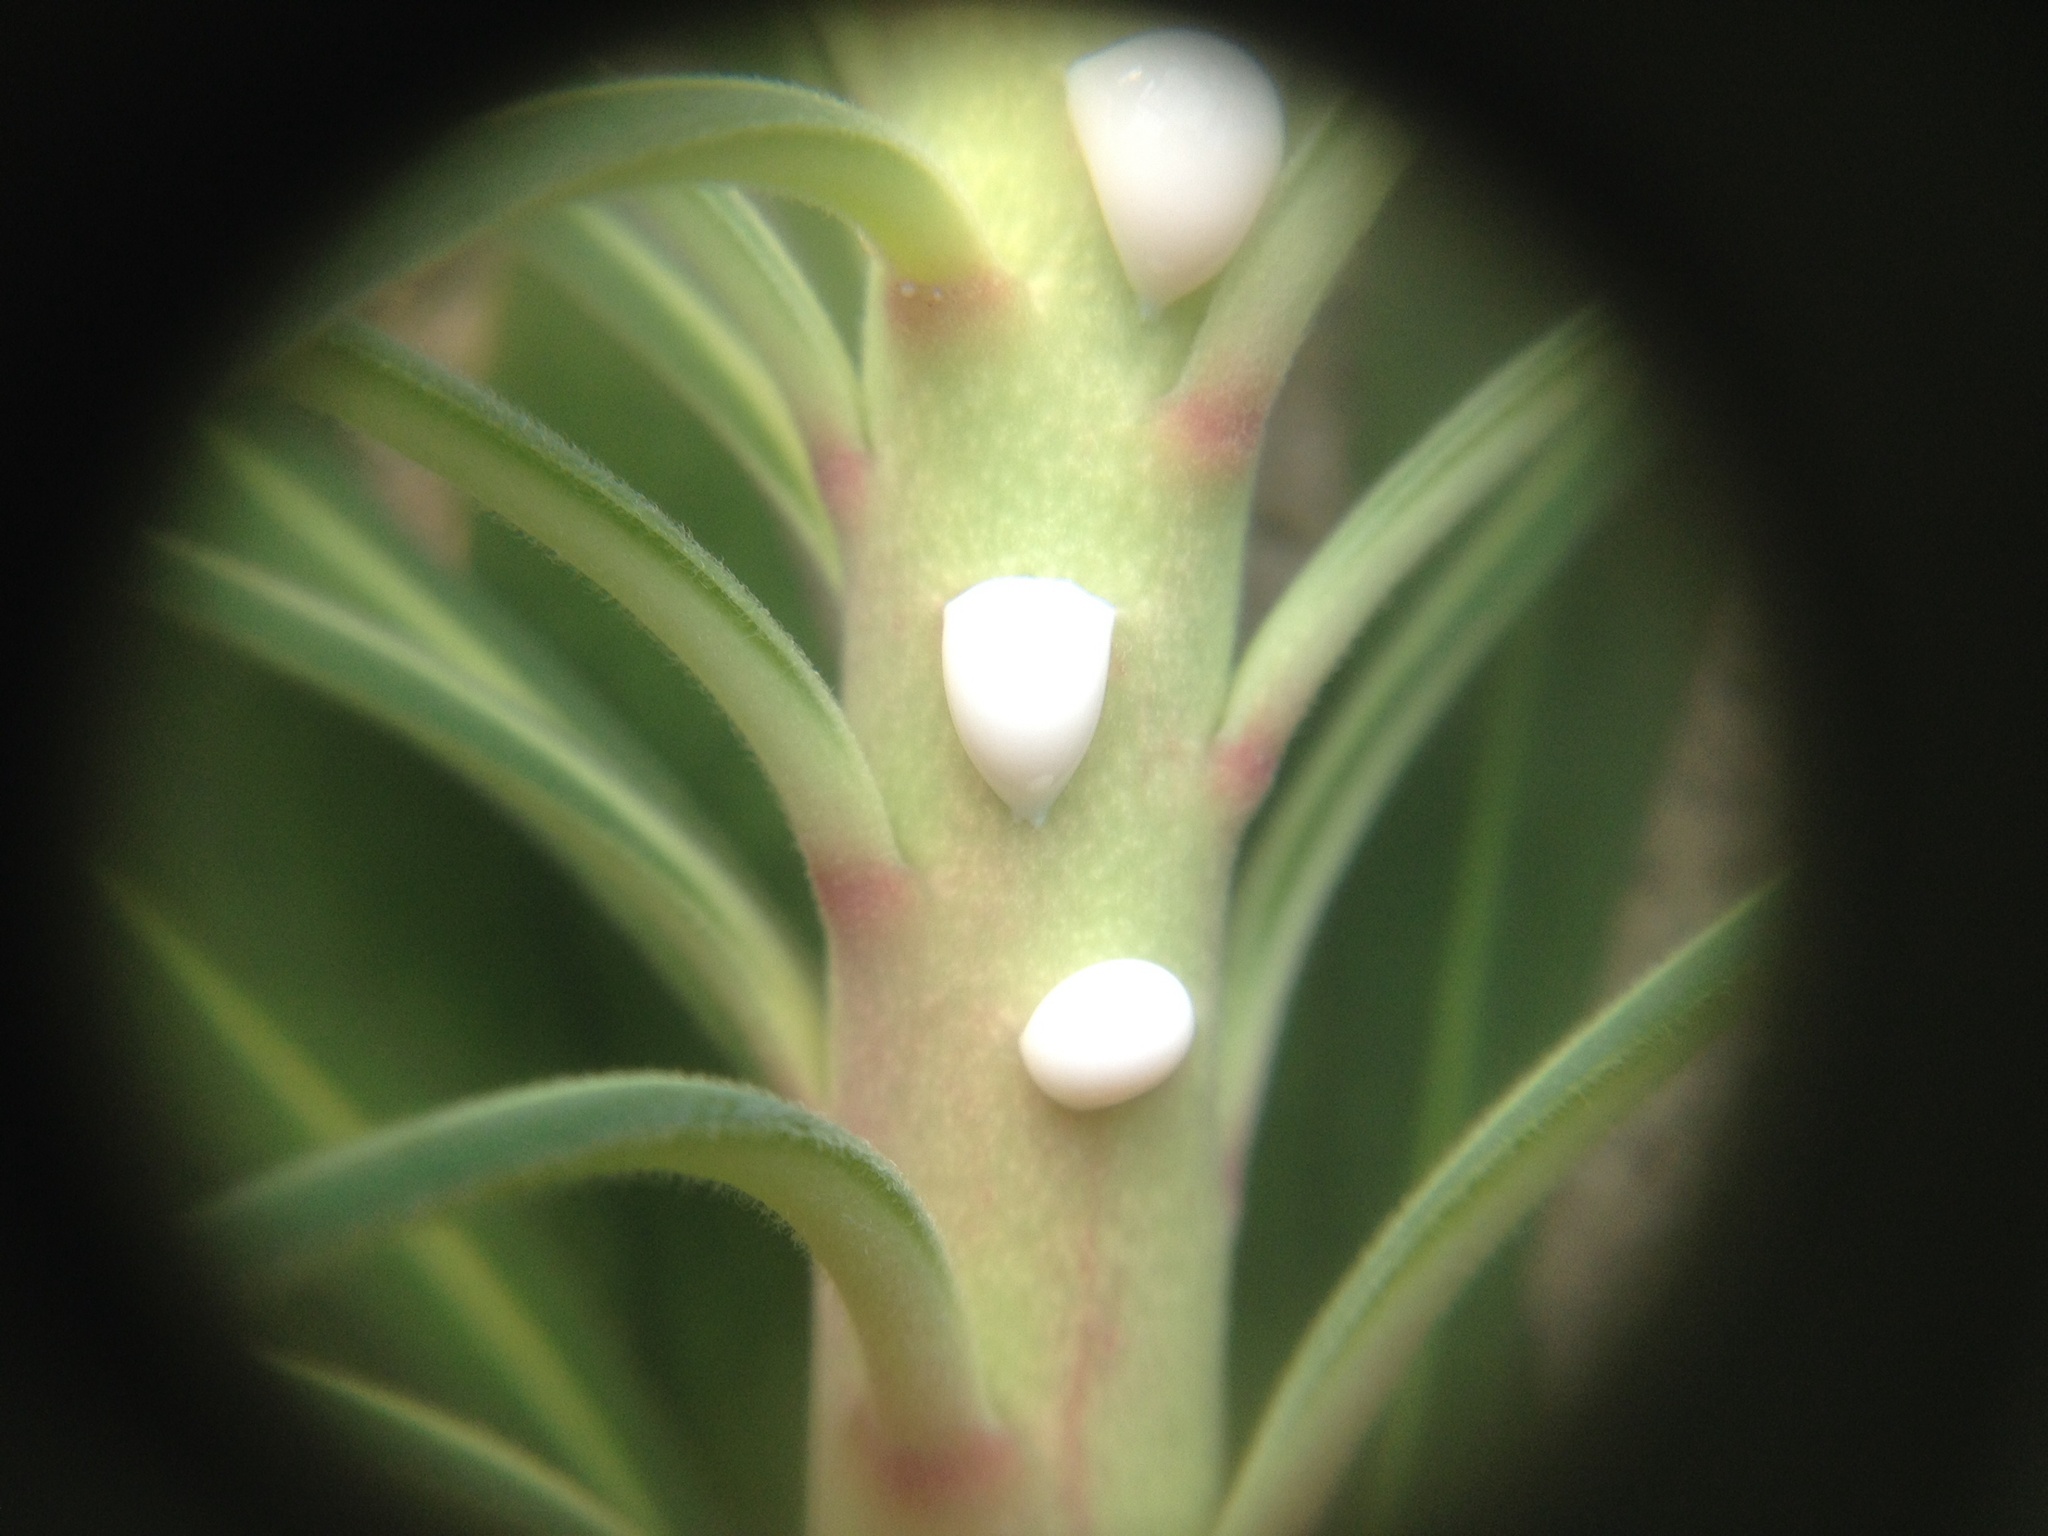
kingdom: Plantae
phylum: Tracheophyta
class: Magnoliopsida
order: Malpighiales
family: Euphorbiaceae
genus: Euphorbia
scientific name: Euphorbia characias
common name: Mediterranean spurge
